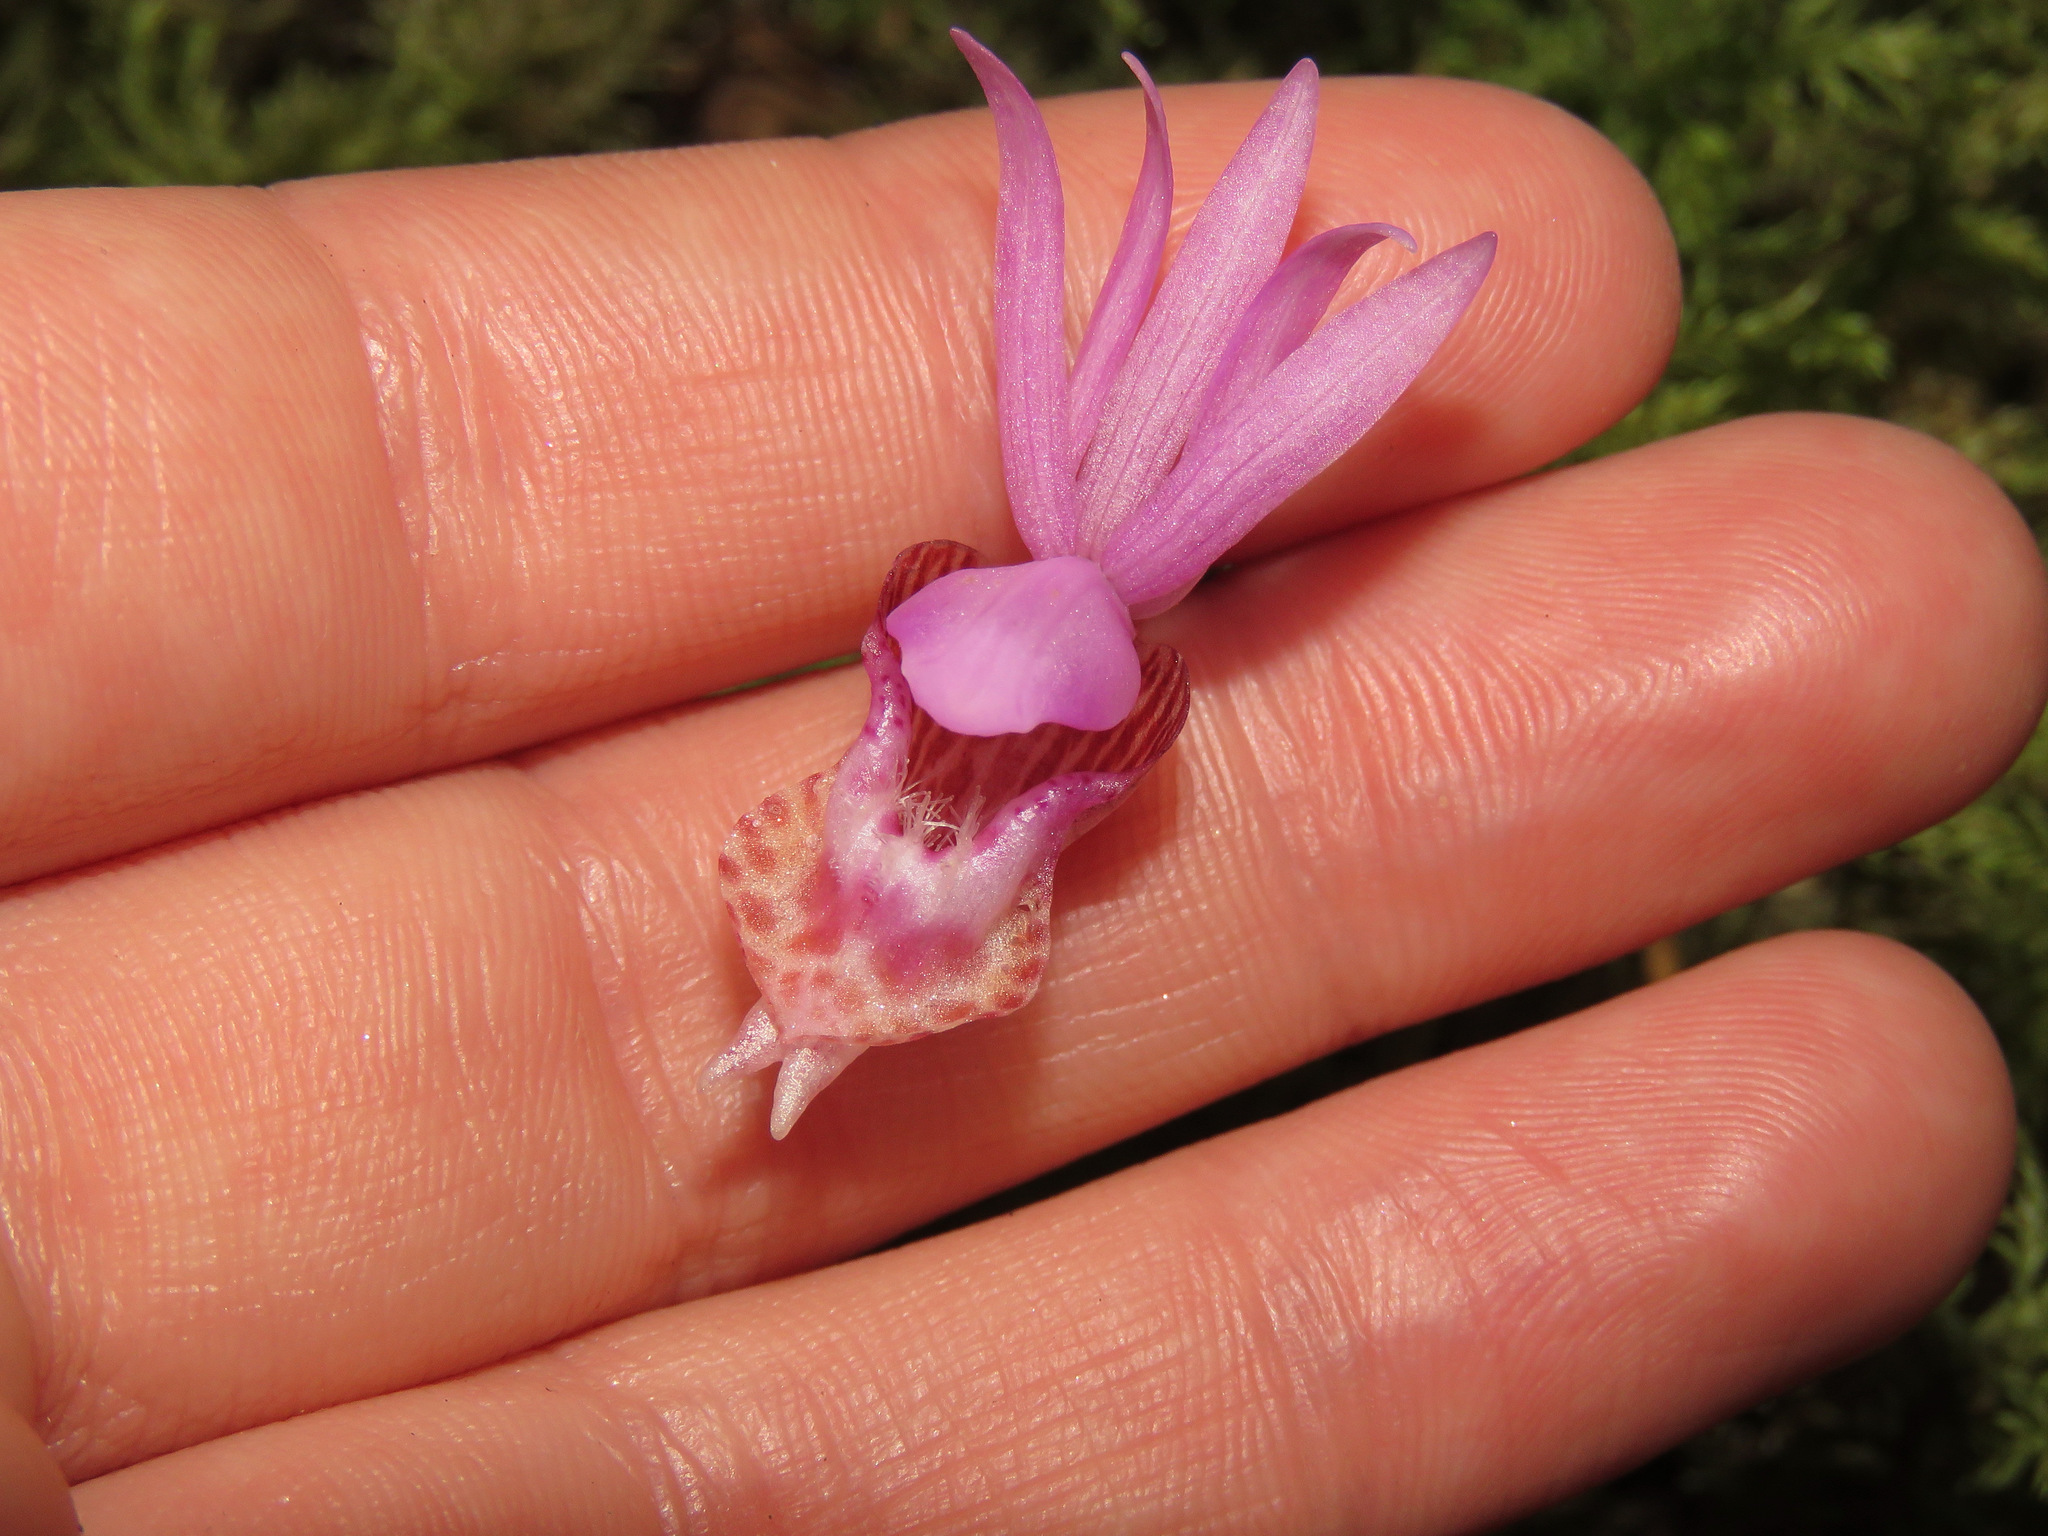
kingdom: Plantae
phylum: Tracheophyta
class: Liliopsida
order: Asparagales
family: Orchidaceae
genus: Calypso
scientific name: Calypso bulbosa
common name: Calypso
